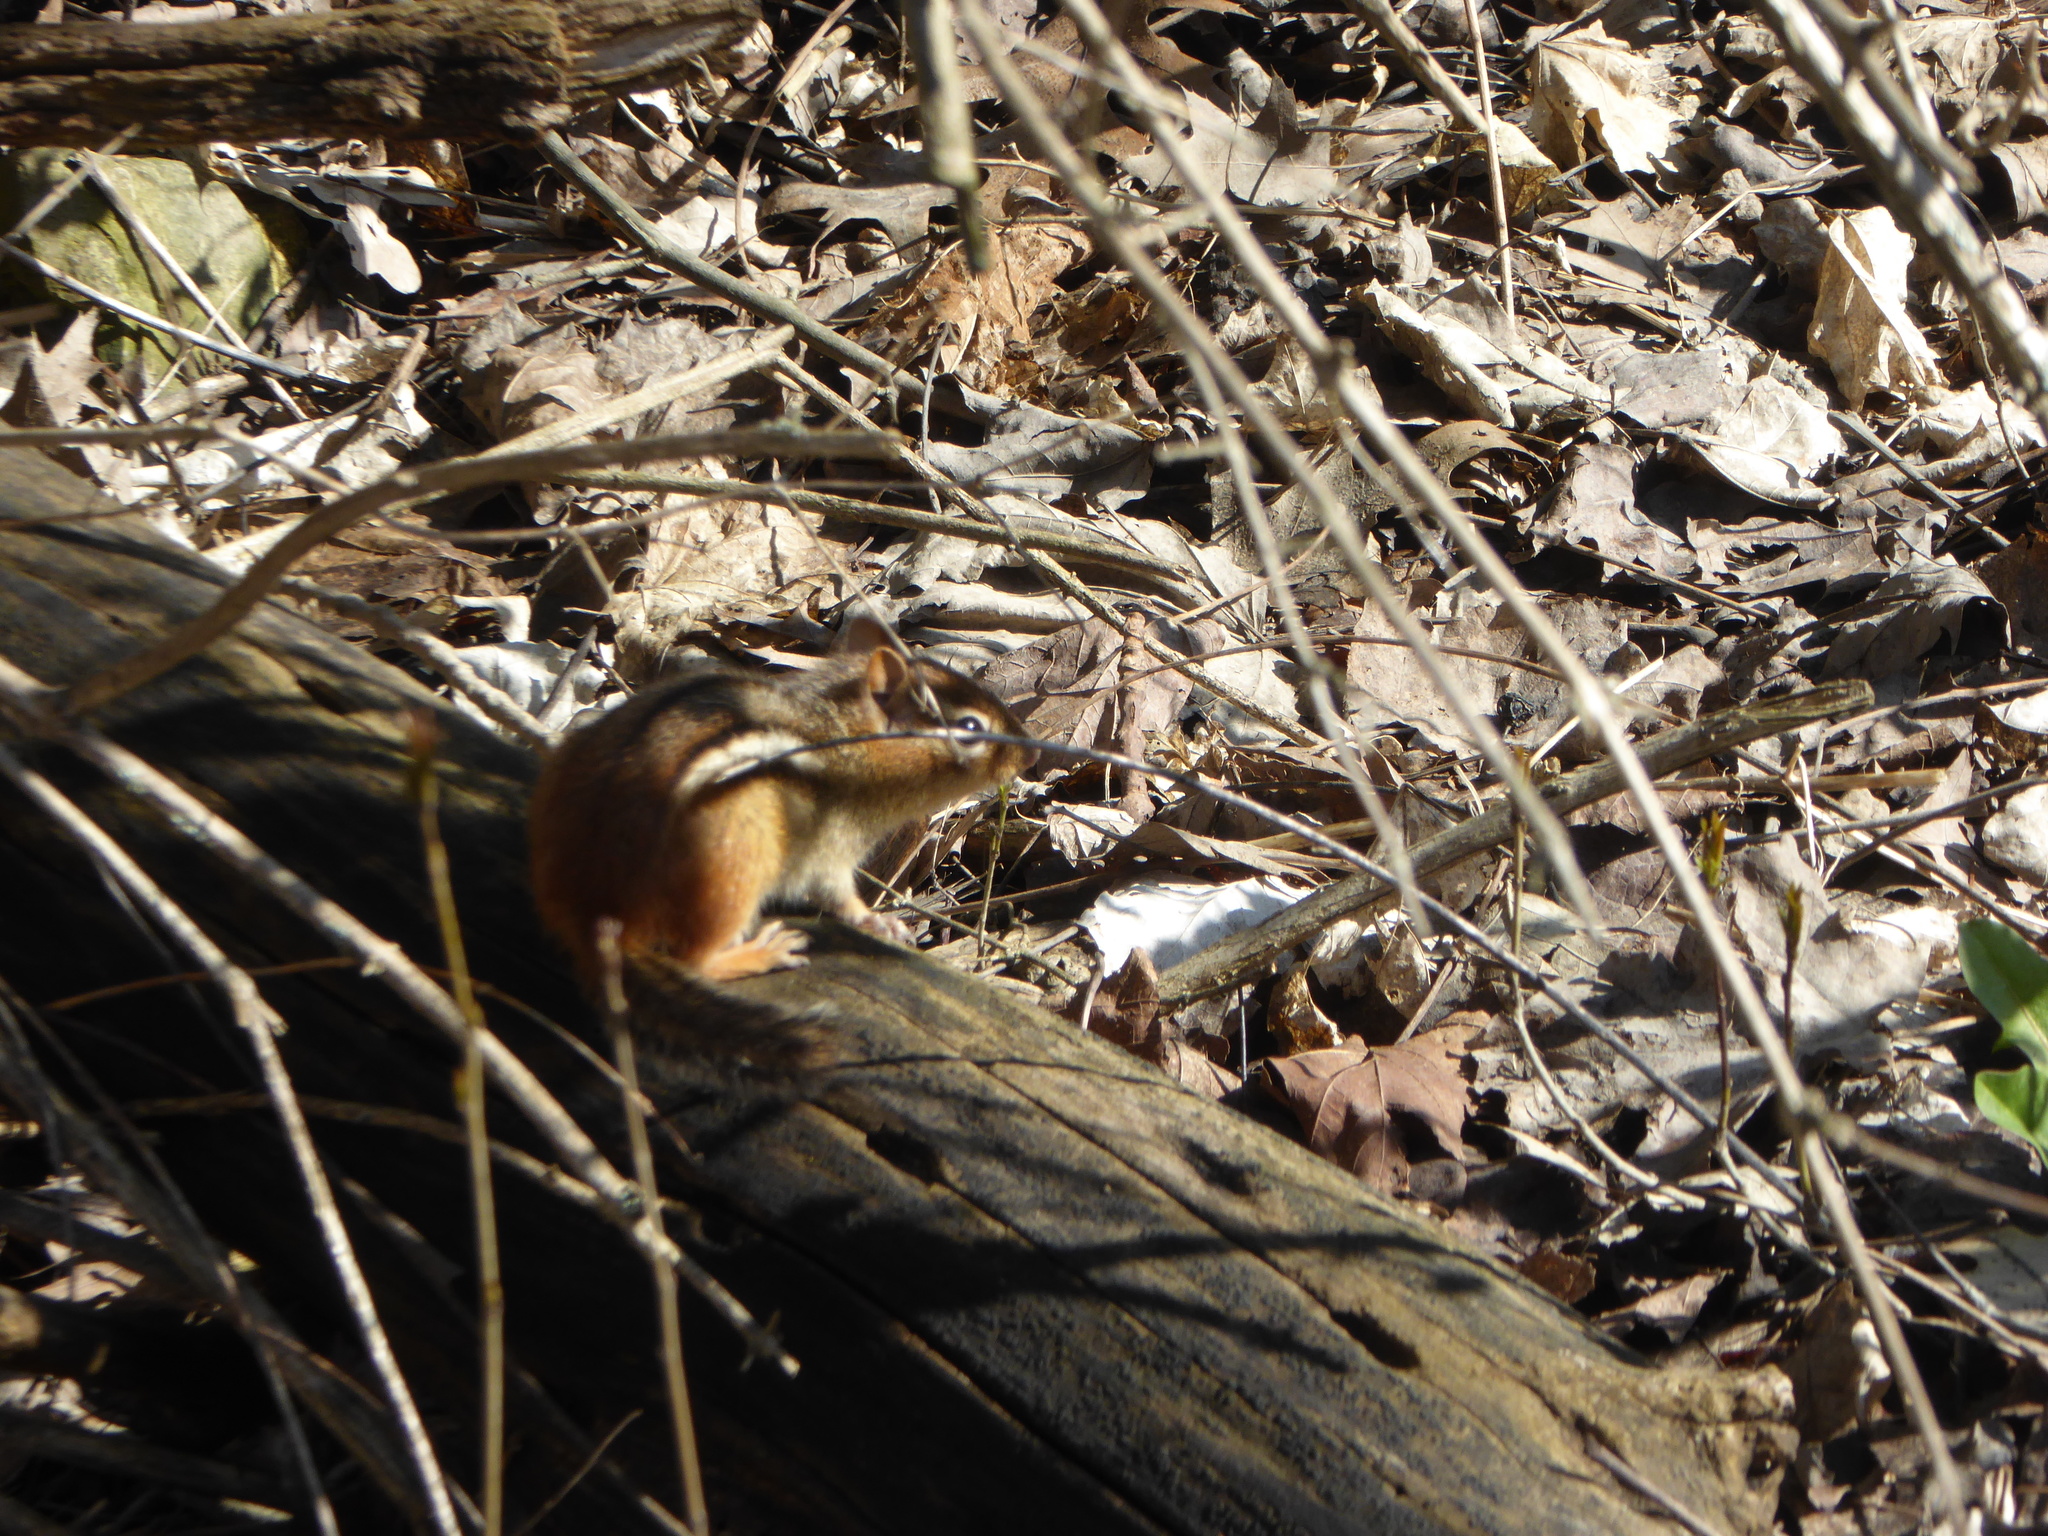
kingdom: Animalia
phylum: Chordata
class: Mammalia
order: Rodentia
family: Sciuridae
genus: Tamias
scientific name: Tamias striatus
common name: Eastern chipmunk
